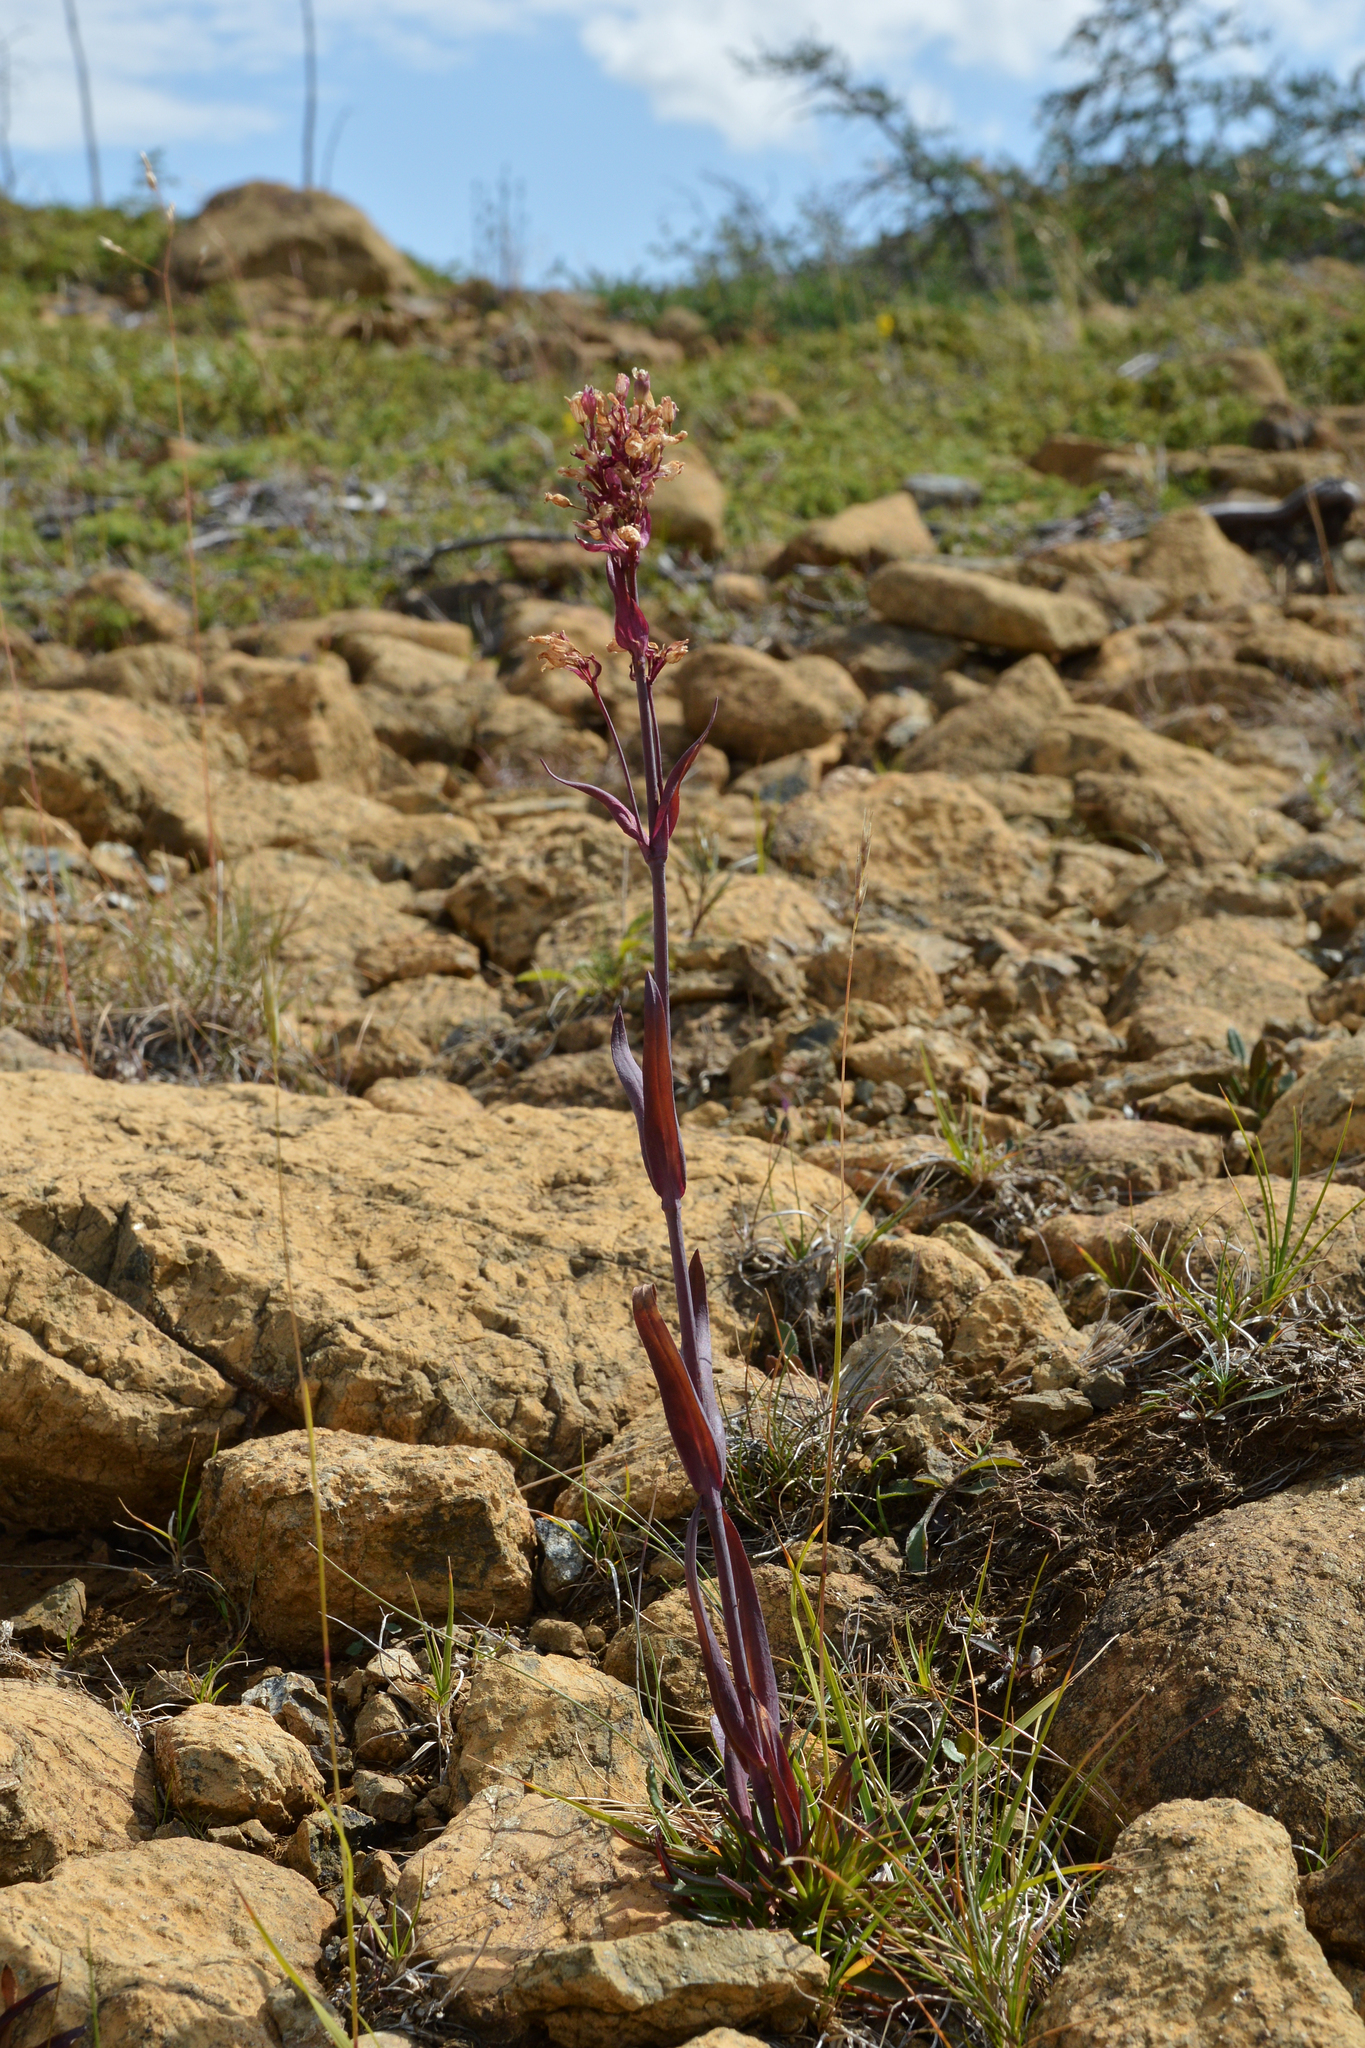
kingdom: Plantae
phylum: Tracheophyta
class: Magnoliopsida
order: Caryophyllales
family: Caryophyllaceae
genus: Viscaria
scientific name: Viscaria alpina
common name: Alpine campion
